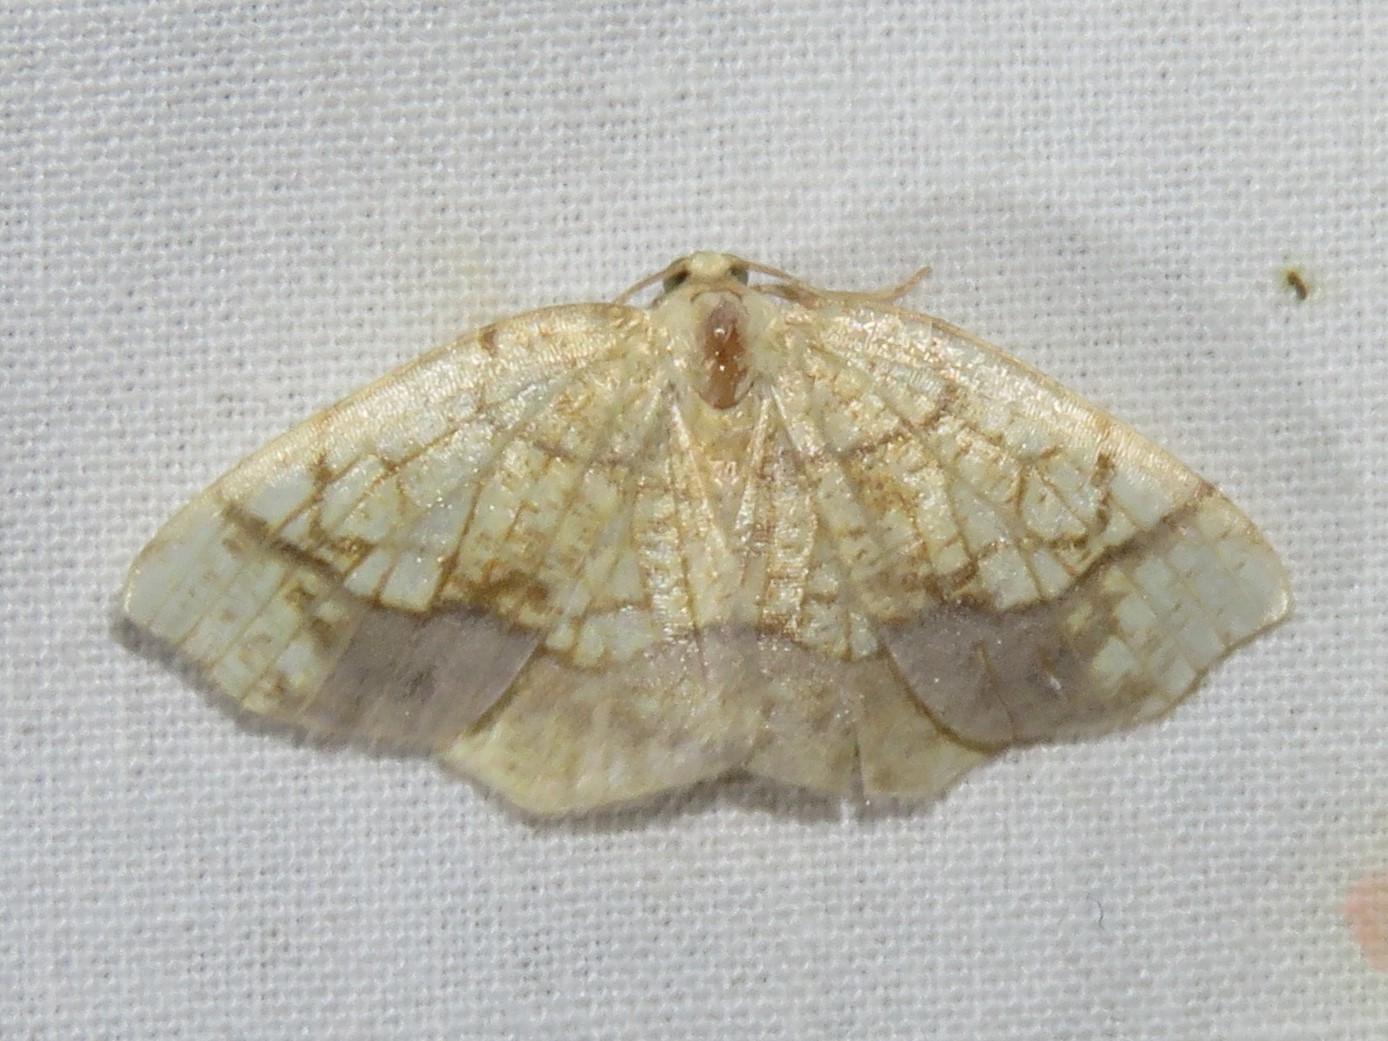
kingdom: Animalia
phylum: Arthropoda
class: Insecta
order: Lepidoptera
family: Geometridae
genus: Nematocampa
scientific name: Nematocampa resistaria
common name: Horned spanworm moth
